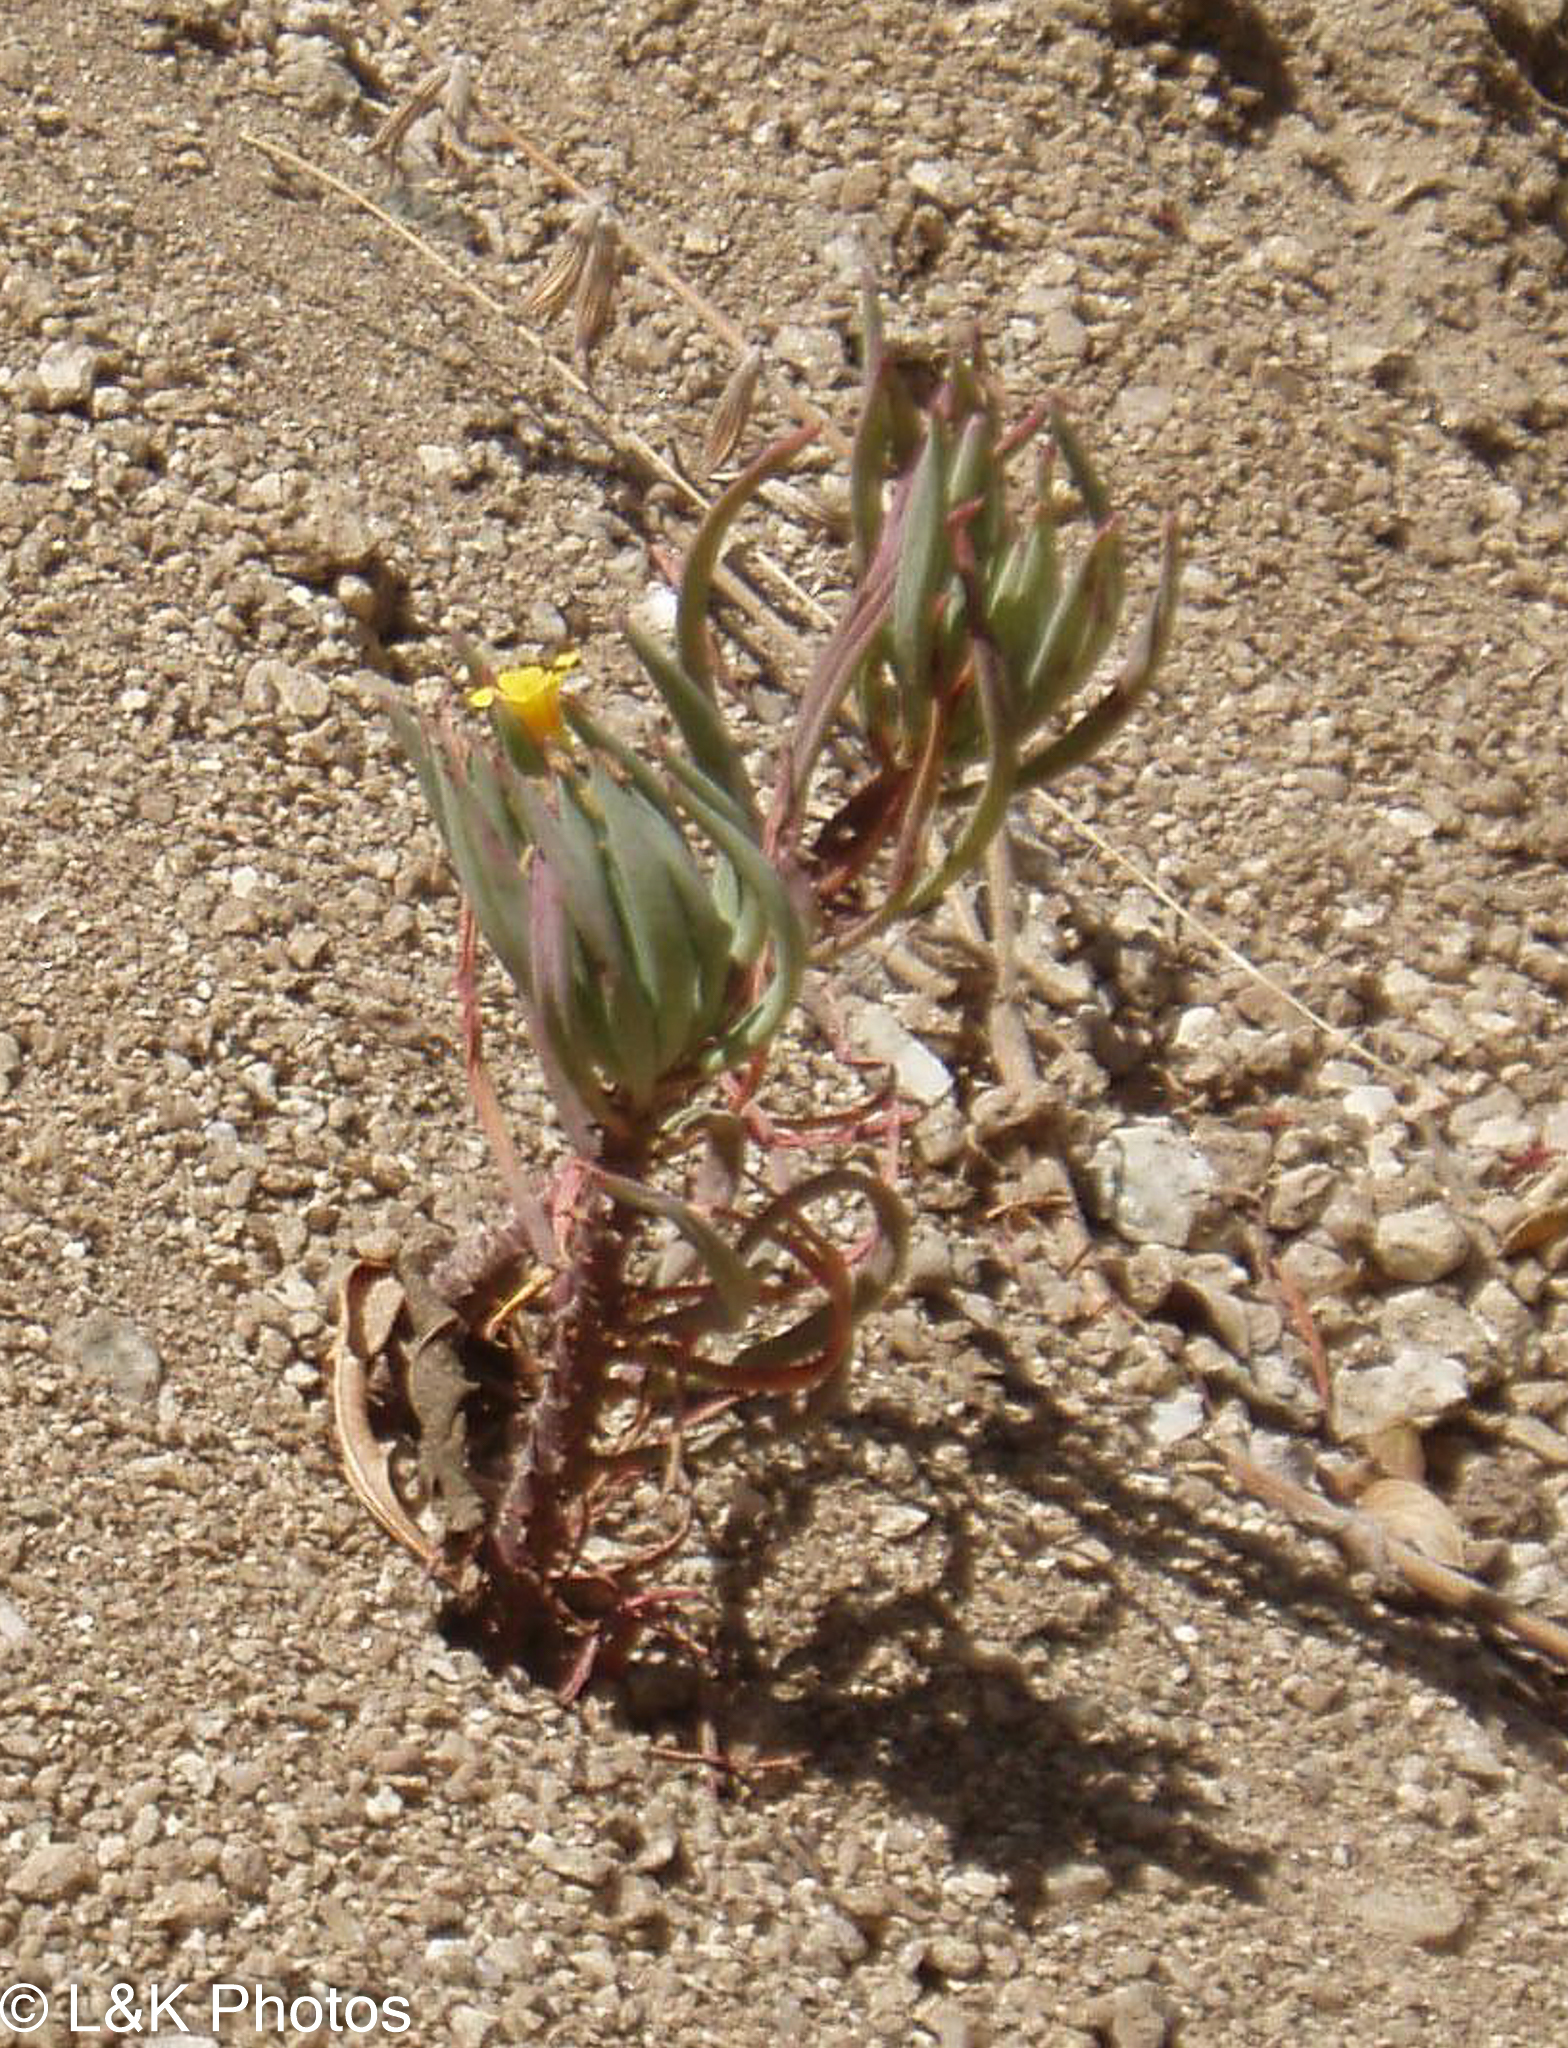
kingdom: Plantae
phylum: Tracheophyta
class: Magnoliopsida
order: Oxalidales
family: Oxalidaceae
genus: Oxalis
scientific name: Oxalis san-miguelii
